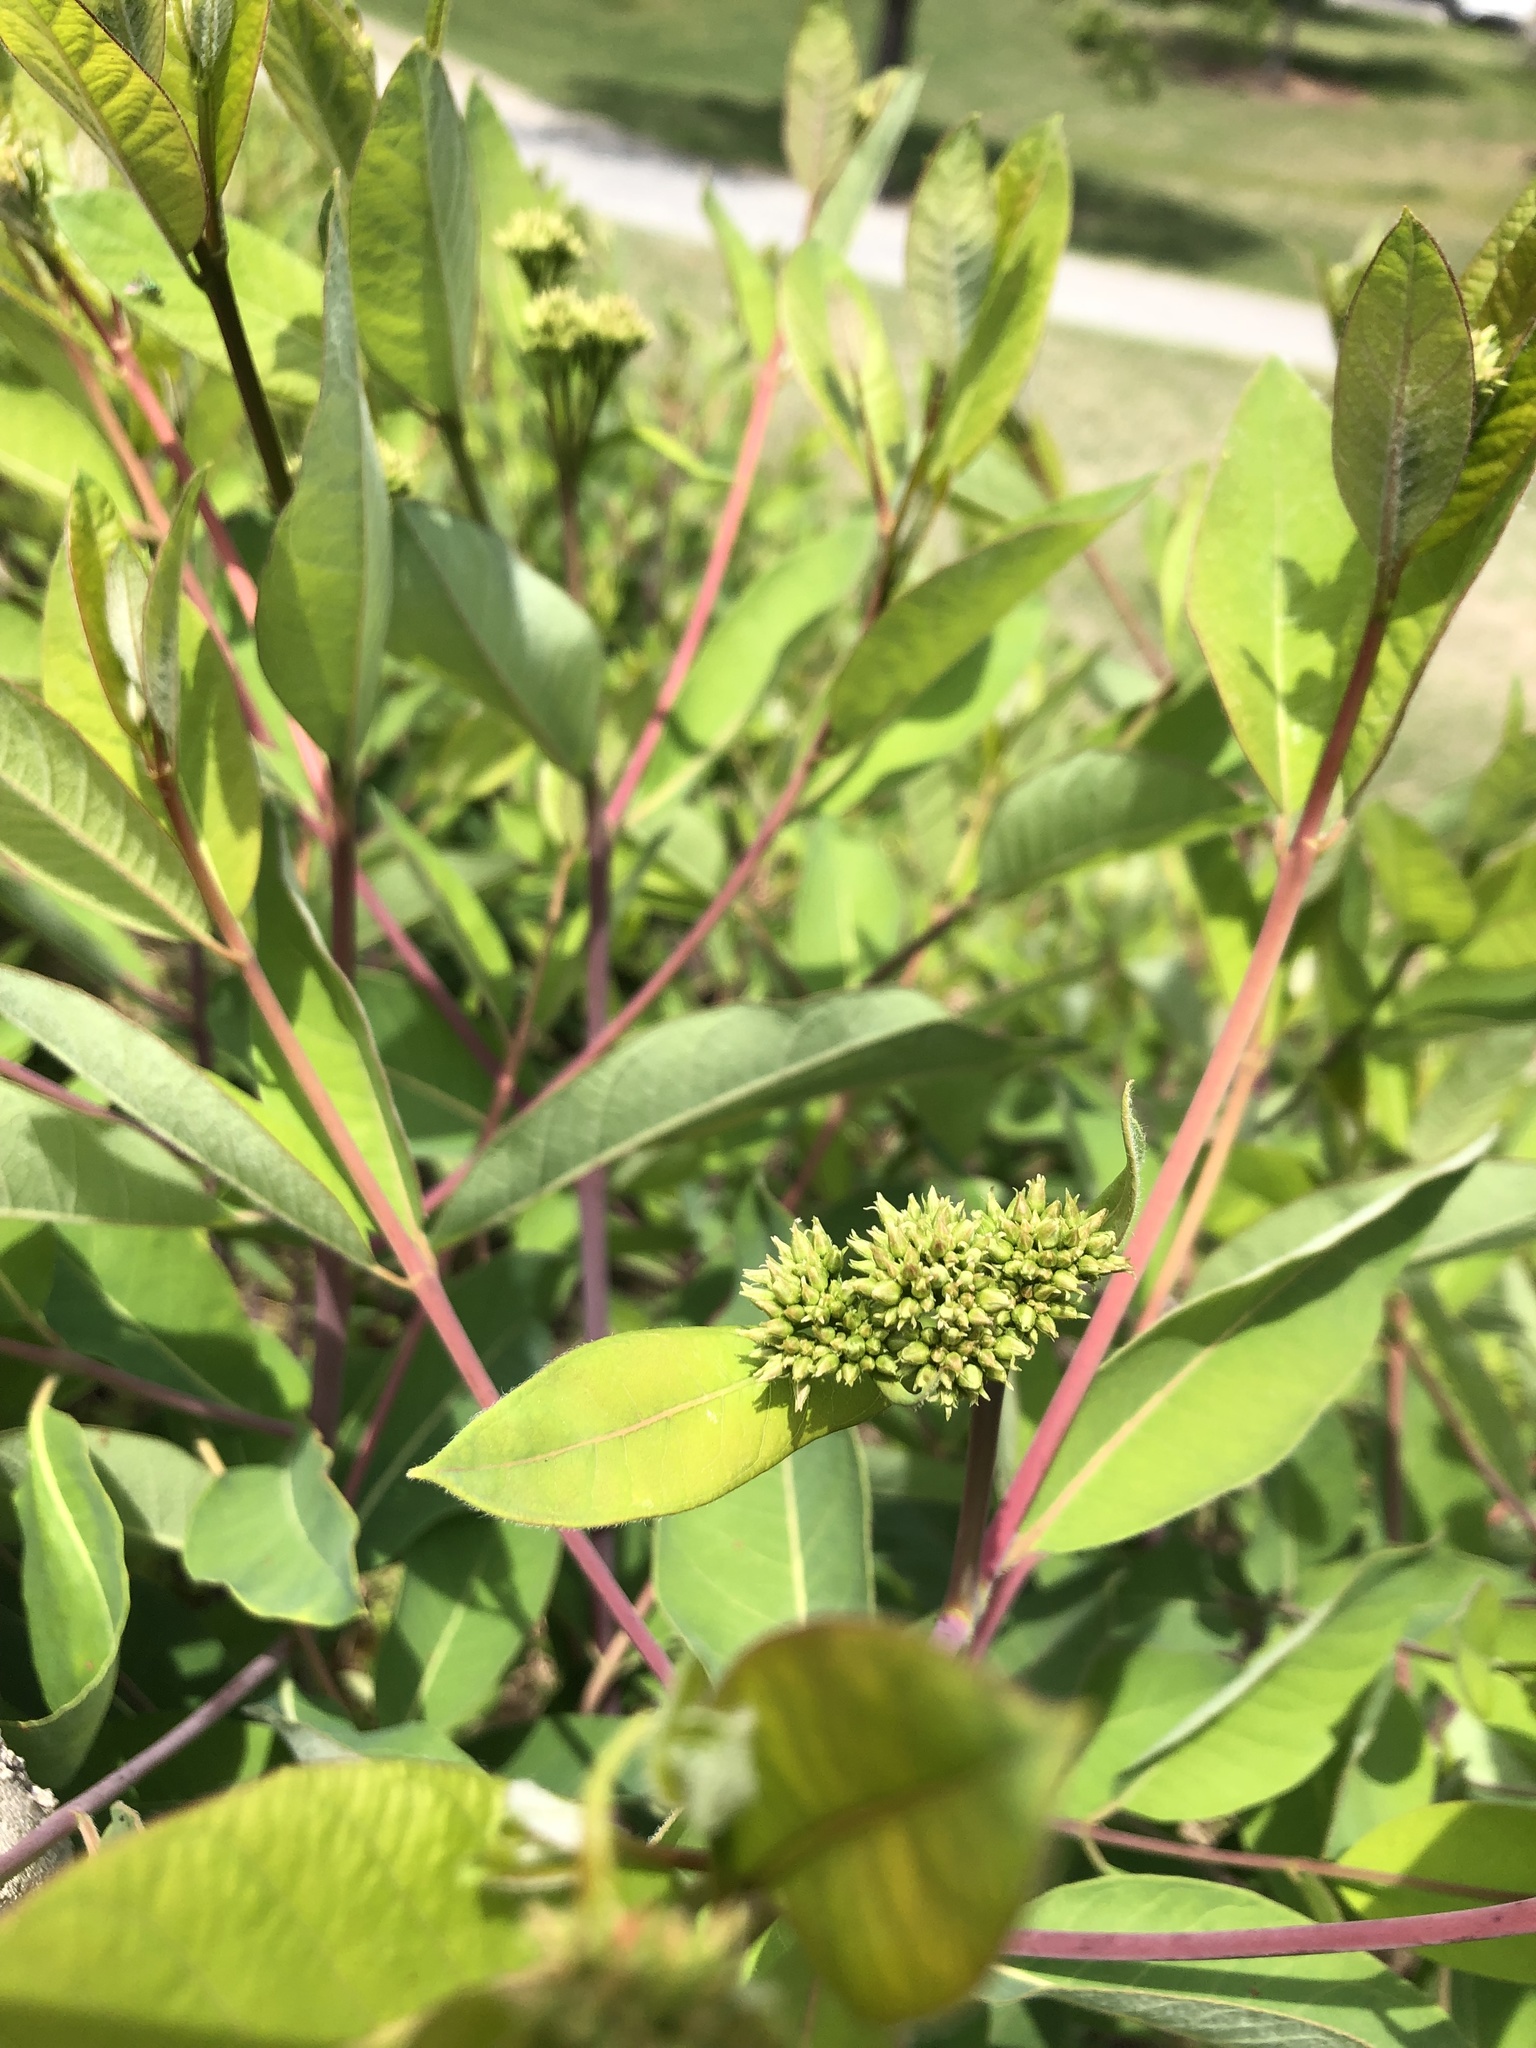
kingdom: Plantae
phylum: Tracheophyta
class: Magnoliopsida
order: Gentianales
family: Apocynaceae
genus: Apocynum
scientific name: Apocynum cannabinum
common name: Hemp dogbane
